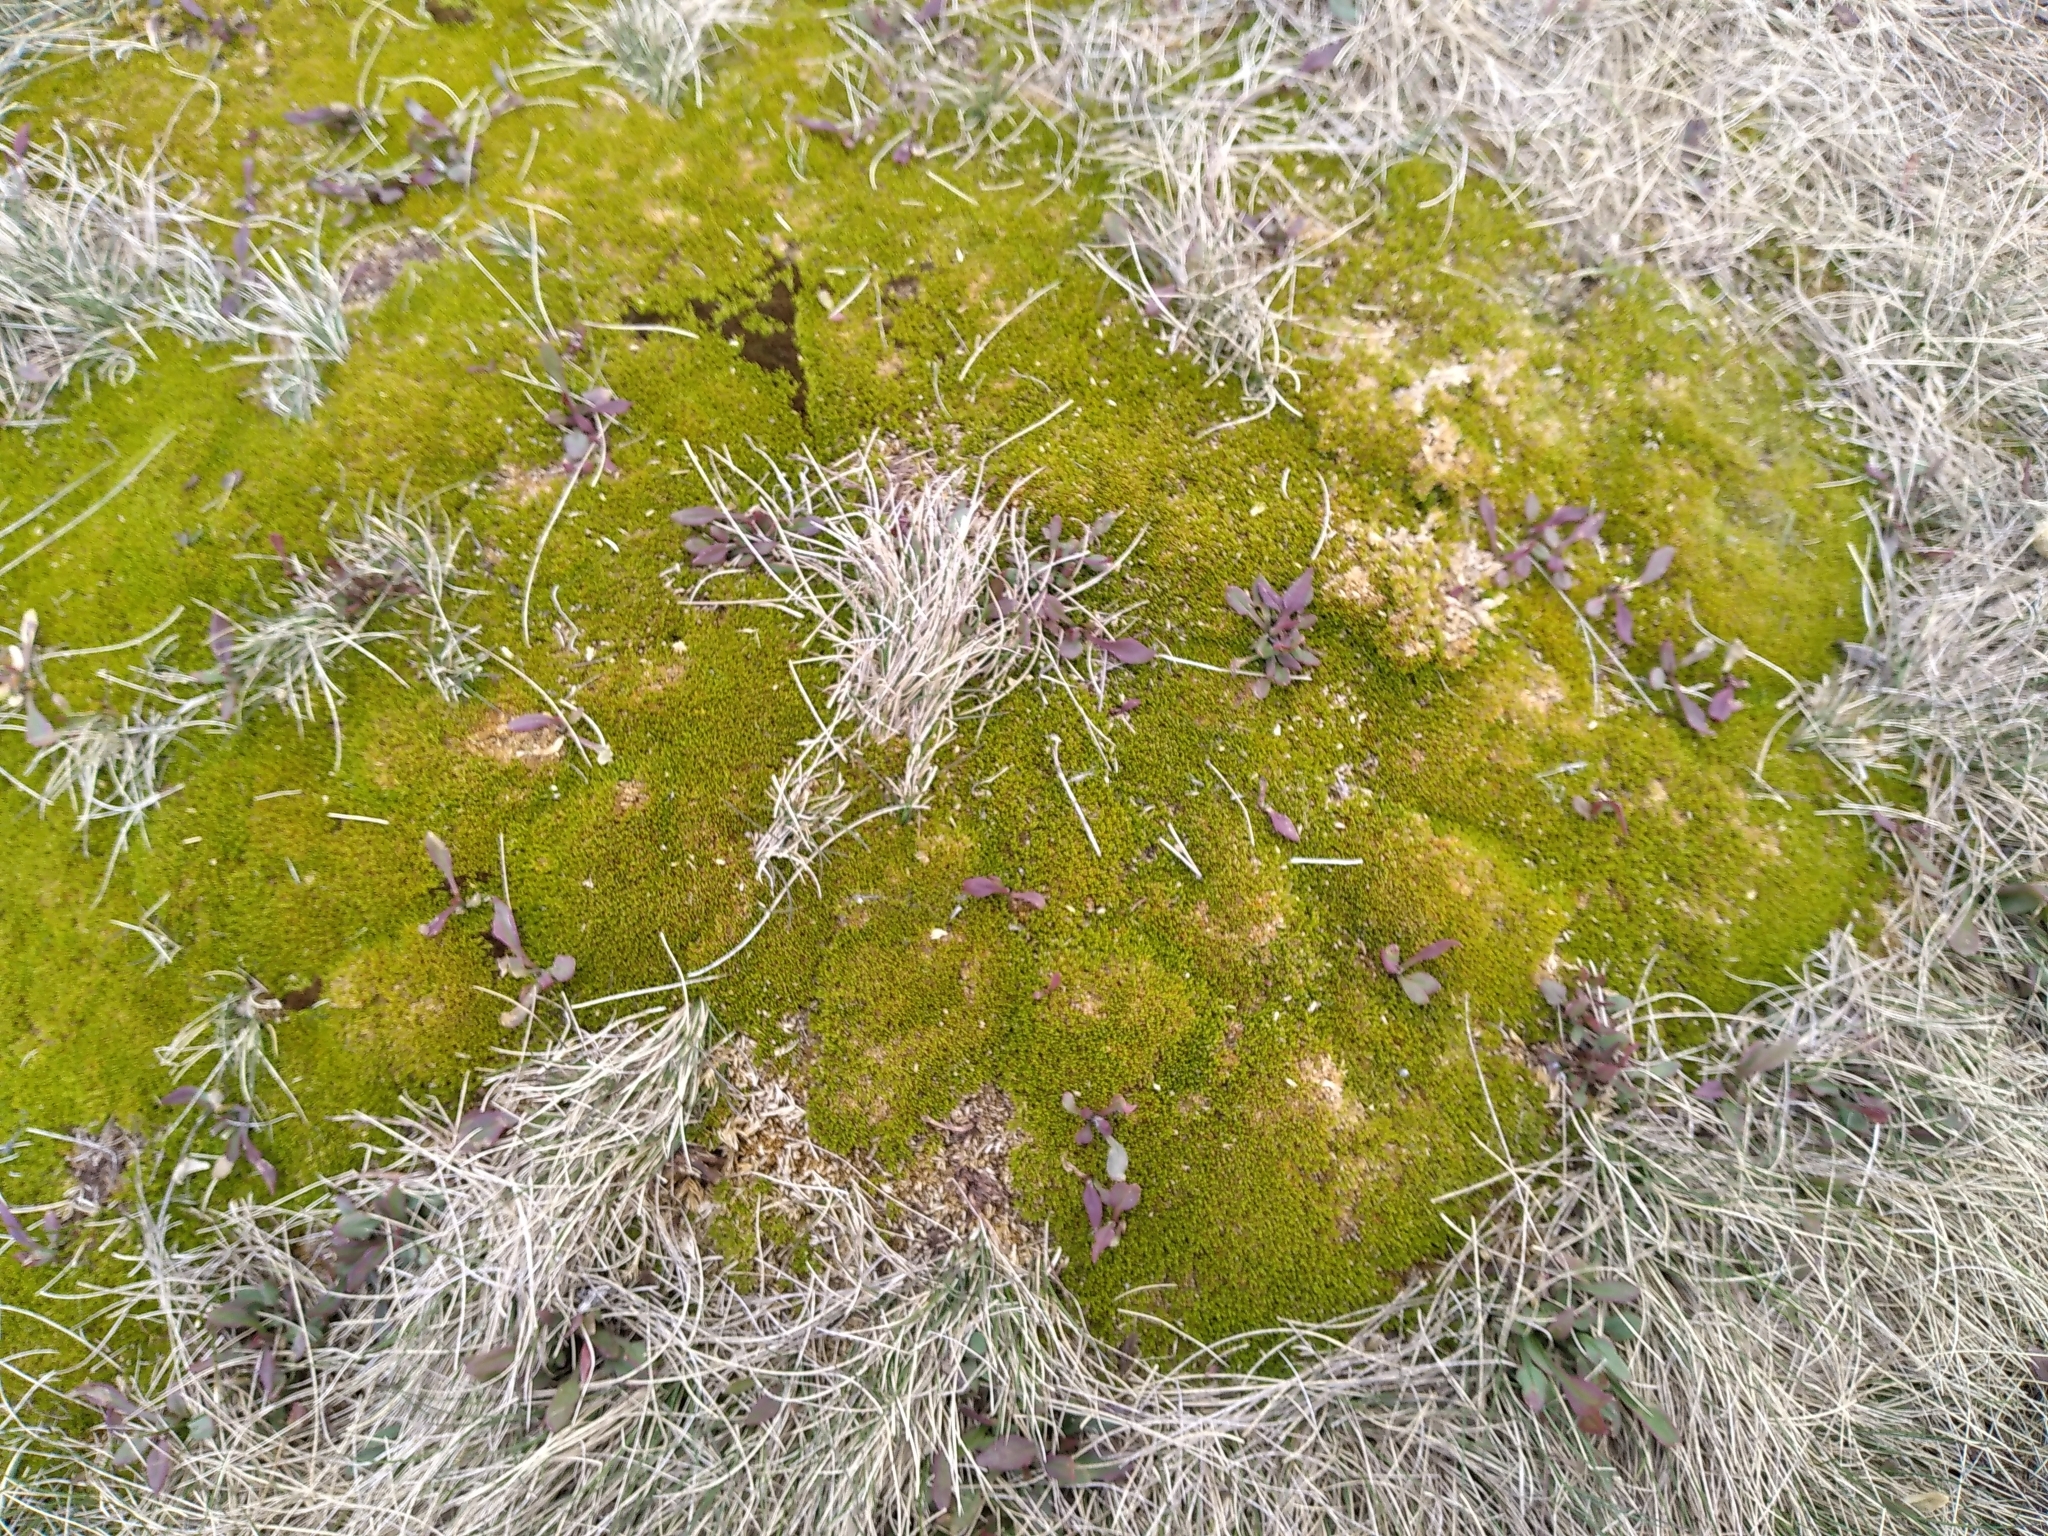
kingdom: Plantae
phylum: Tracheophyta
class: Magnoliopsida
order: Caryophyllales
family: Caryophyllaceae
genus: Scleranthus
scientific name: Scleranthus uniflorus
